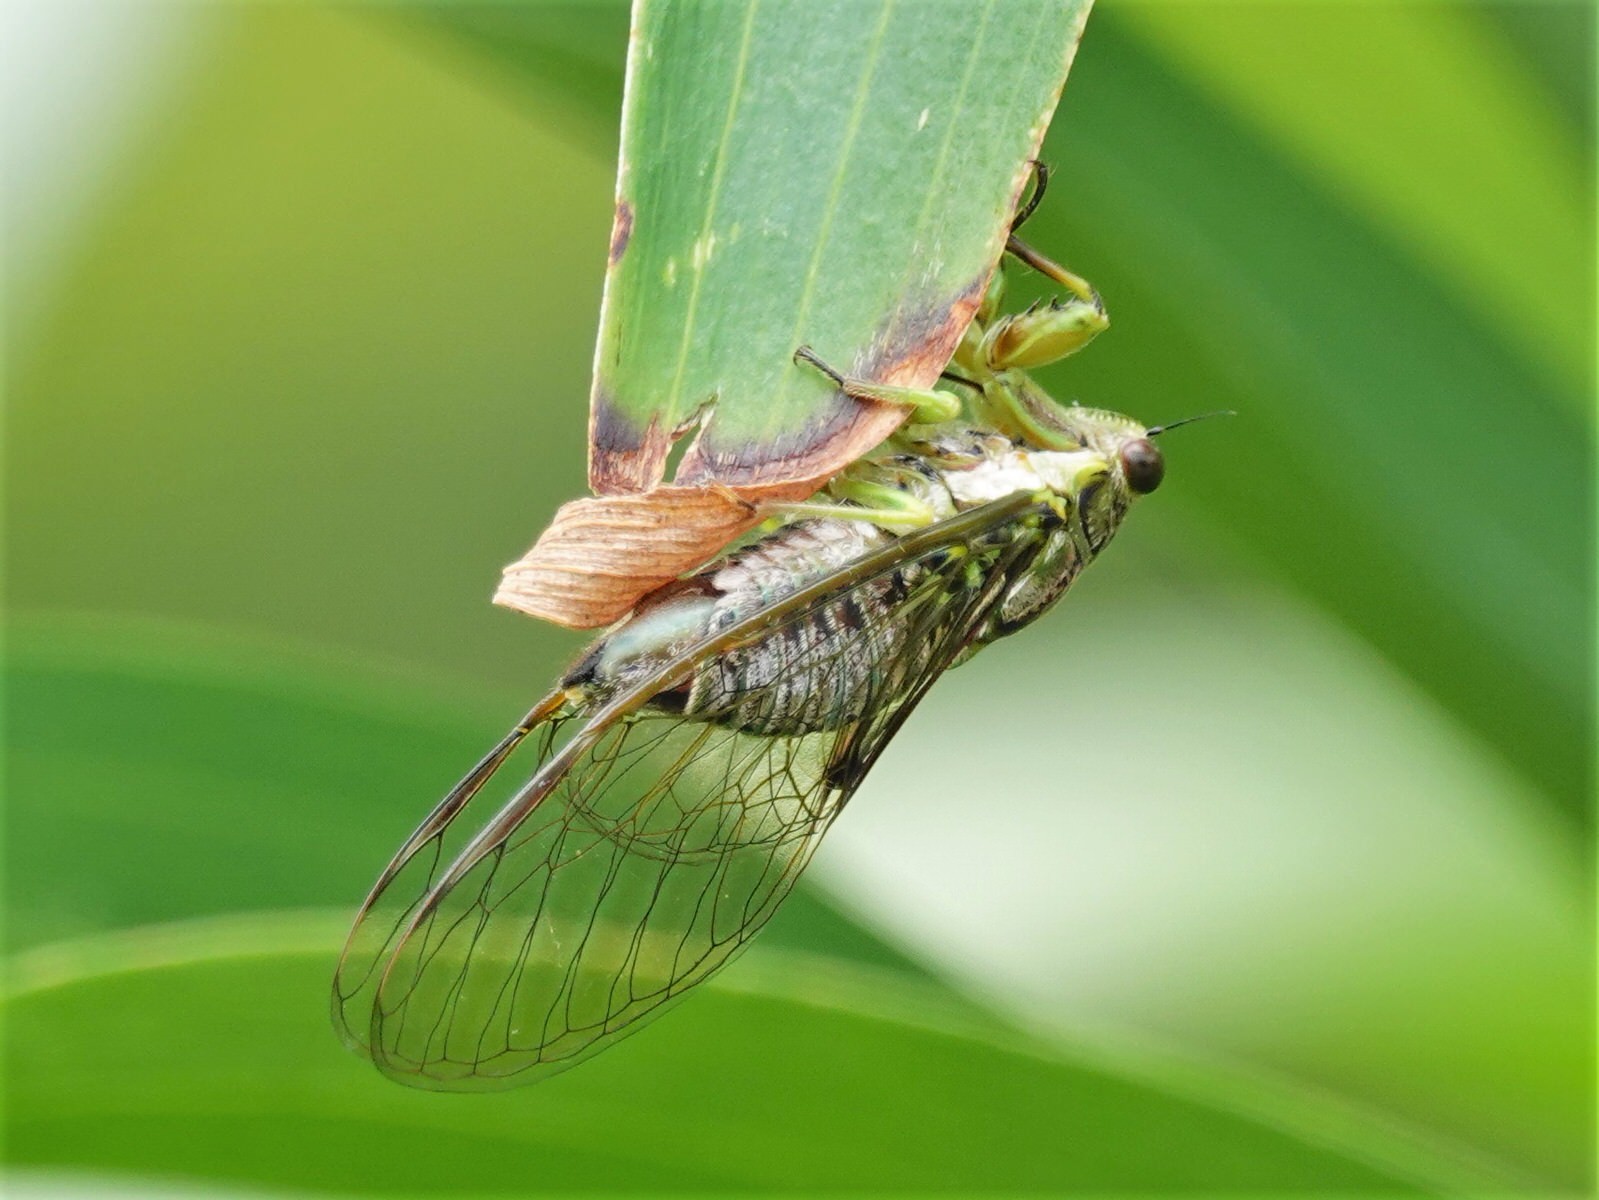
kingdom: Animalia
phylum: Arthropoda
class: Insecta
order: Hemiptera
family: Cicadidae
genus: Kikihia
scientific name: Kikihia scutellaris
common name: Lesser bronze cicada
